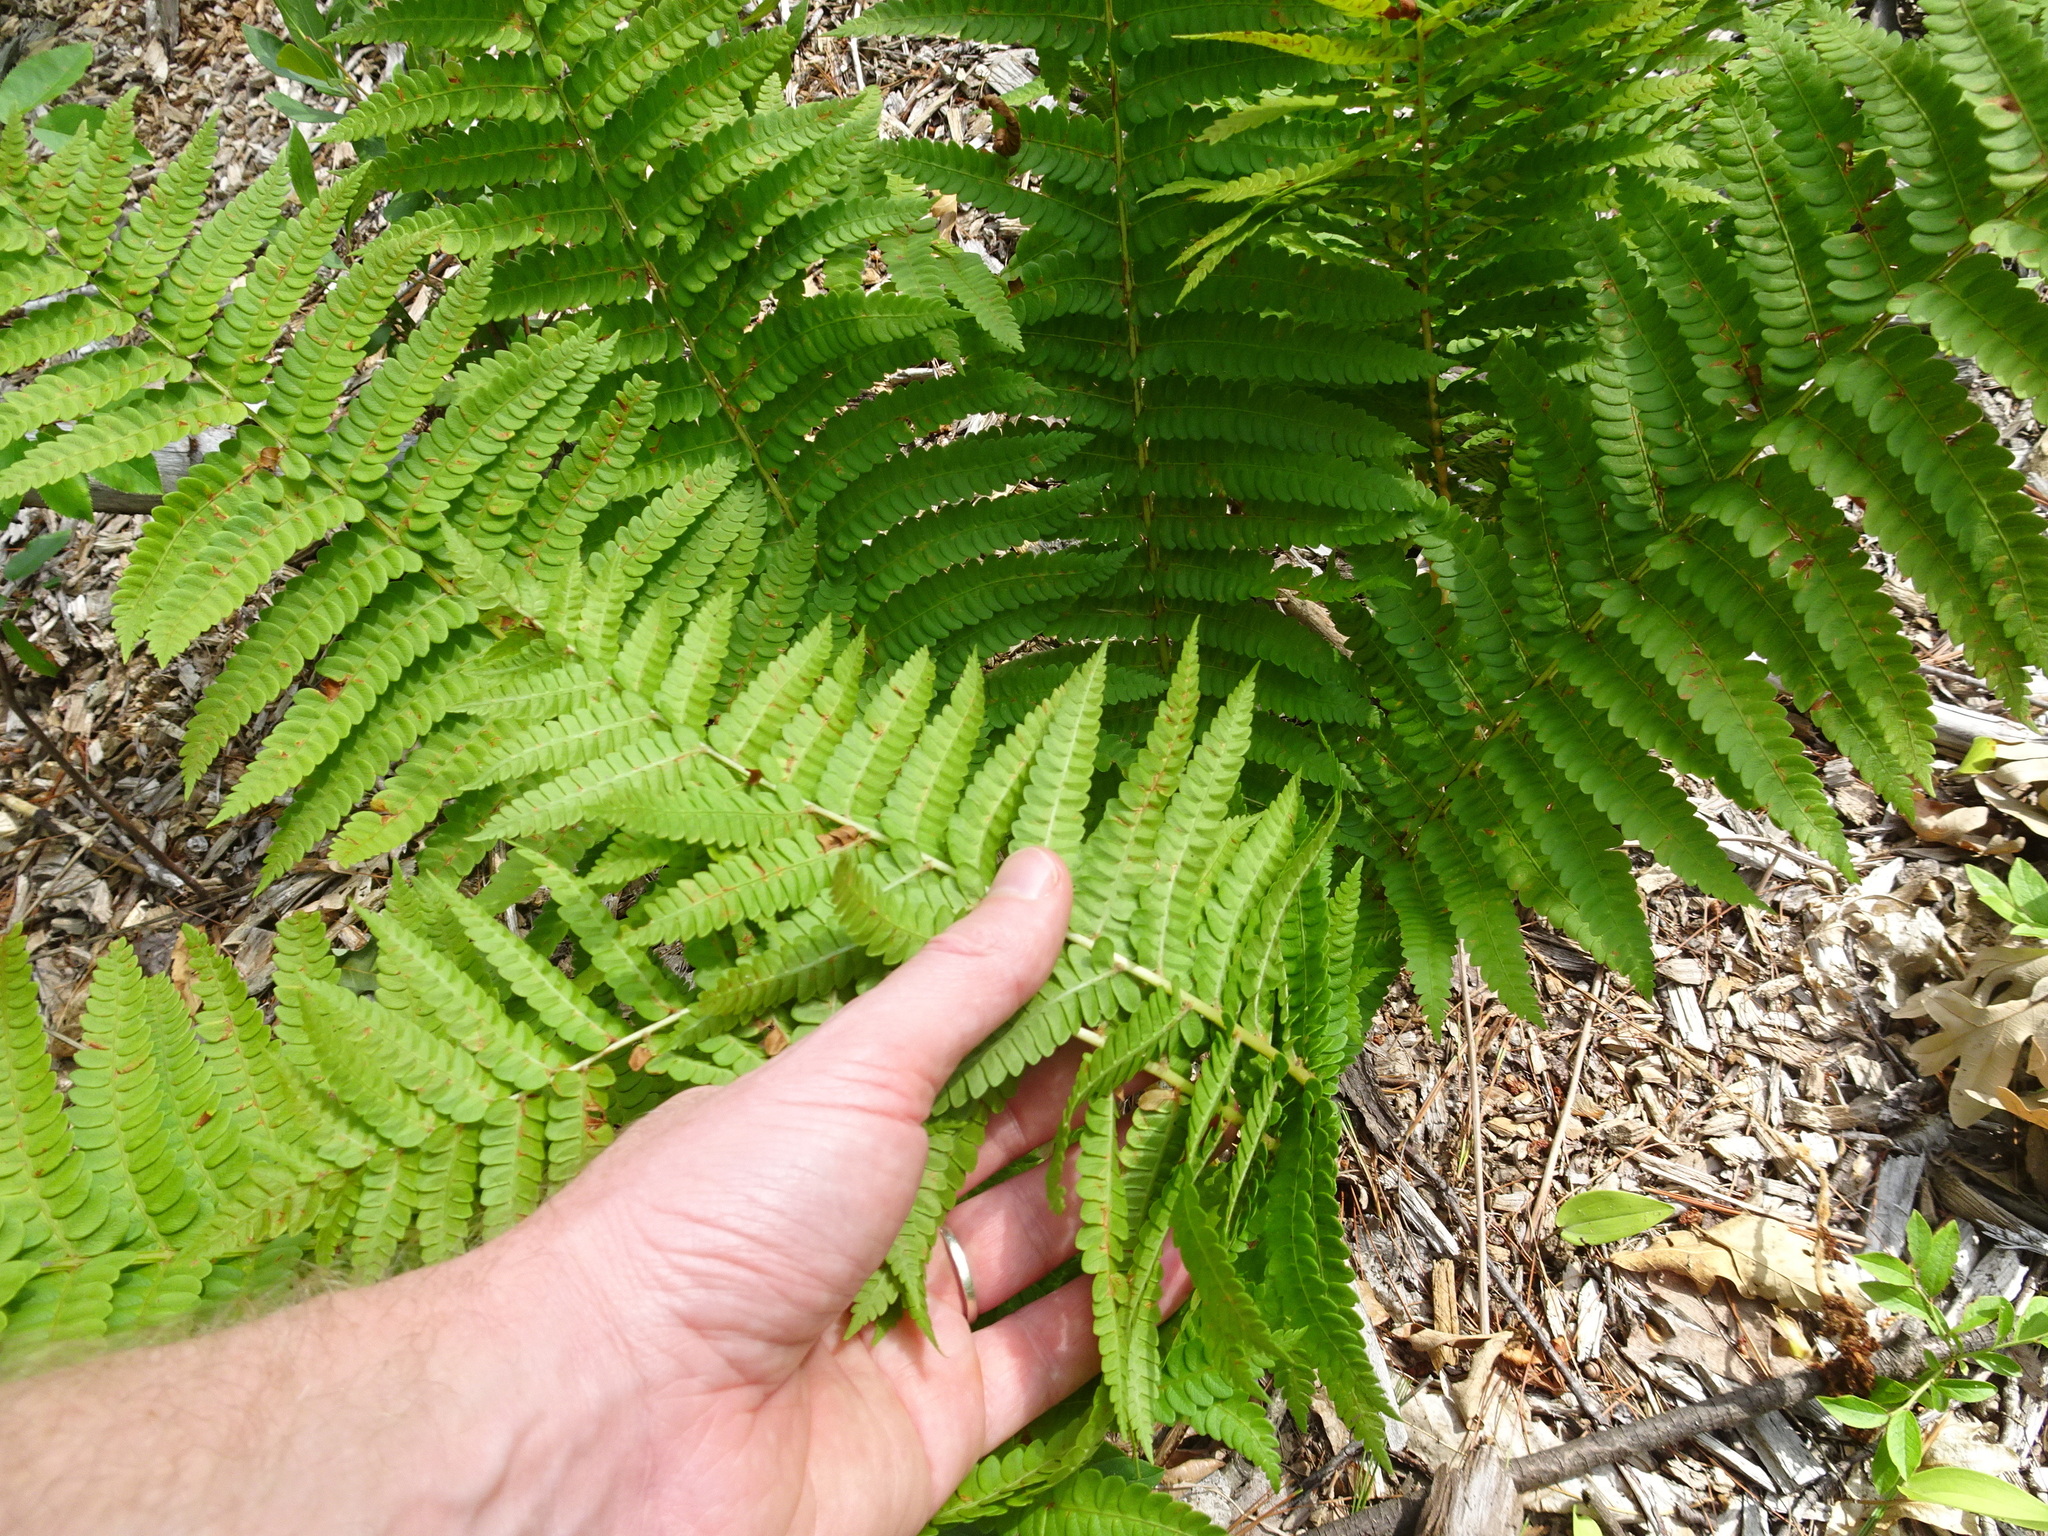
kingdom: Plantae
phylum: Tracheophyta
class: Polypodiopsida
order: Osmundales
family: Osmundaceae
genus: Osmundastrum
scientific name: Osmundastrum cinnamomeum
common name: Cinnamon fern
